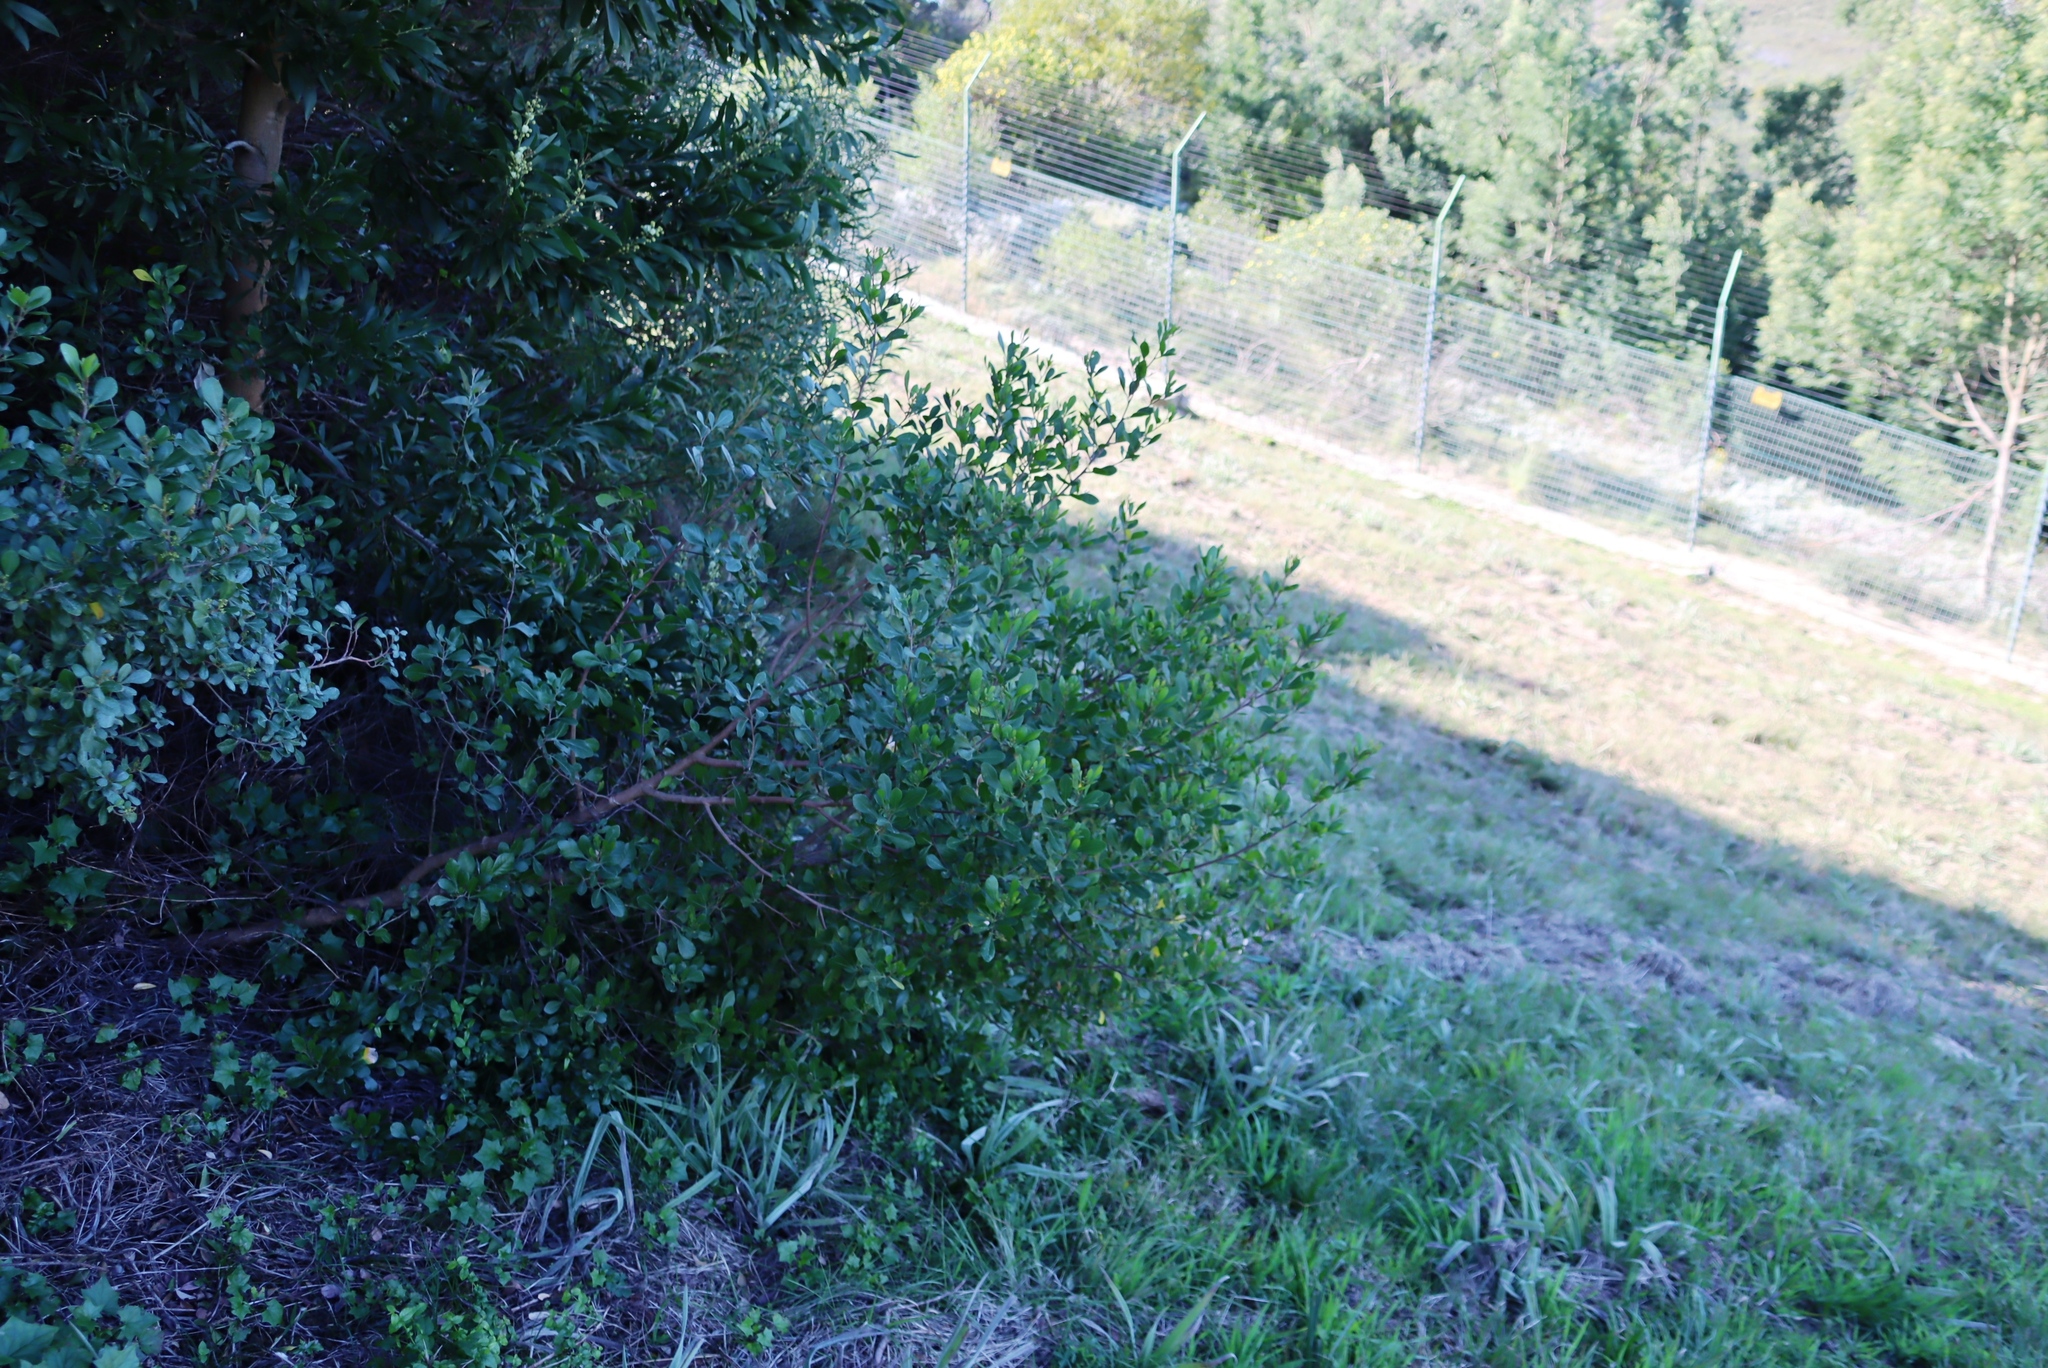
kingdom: Plantae
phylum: Tracheophyta
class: Magnoliopsida
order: Sapindales
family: Anacardiaceae
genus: Searsia
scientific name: Searsia lucida
